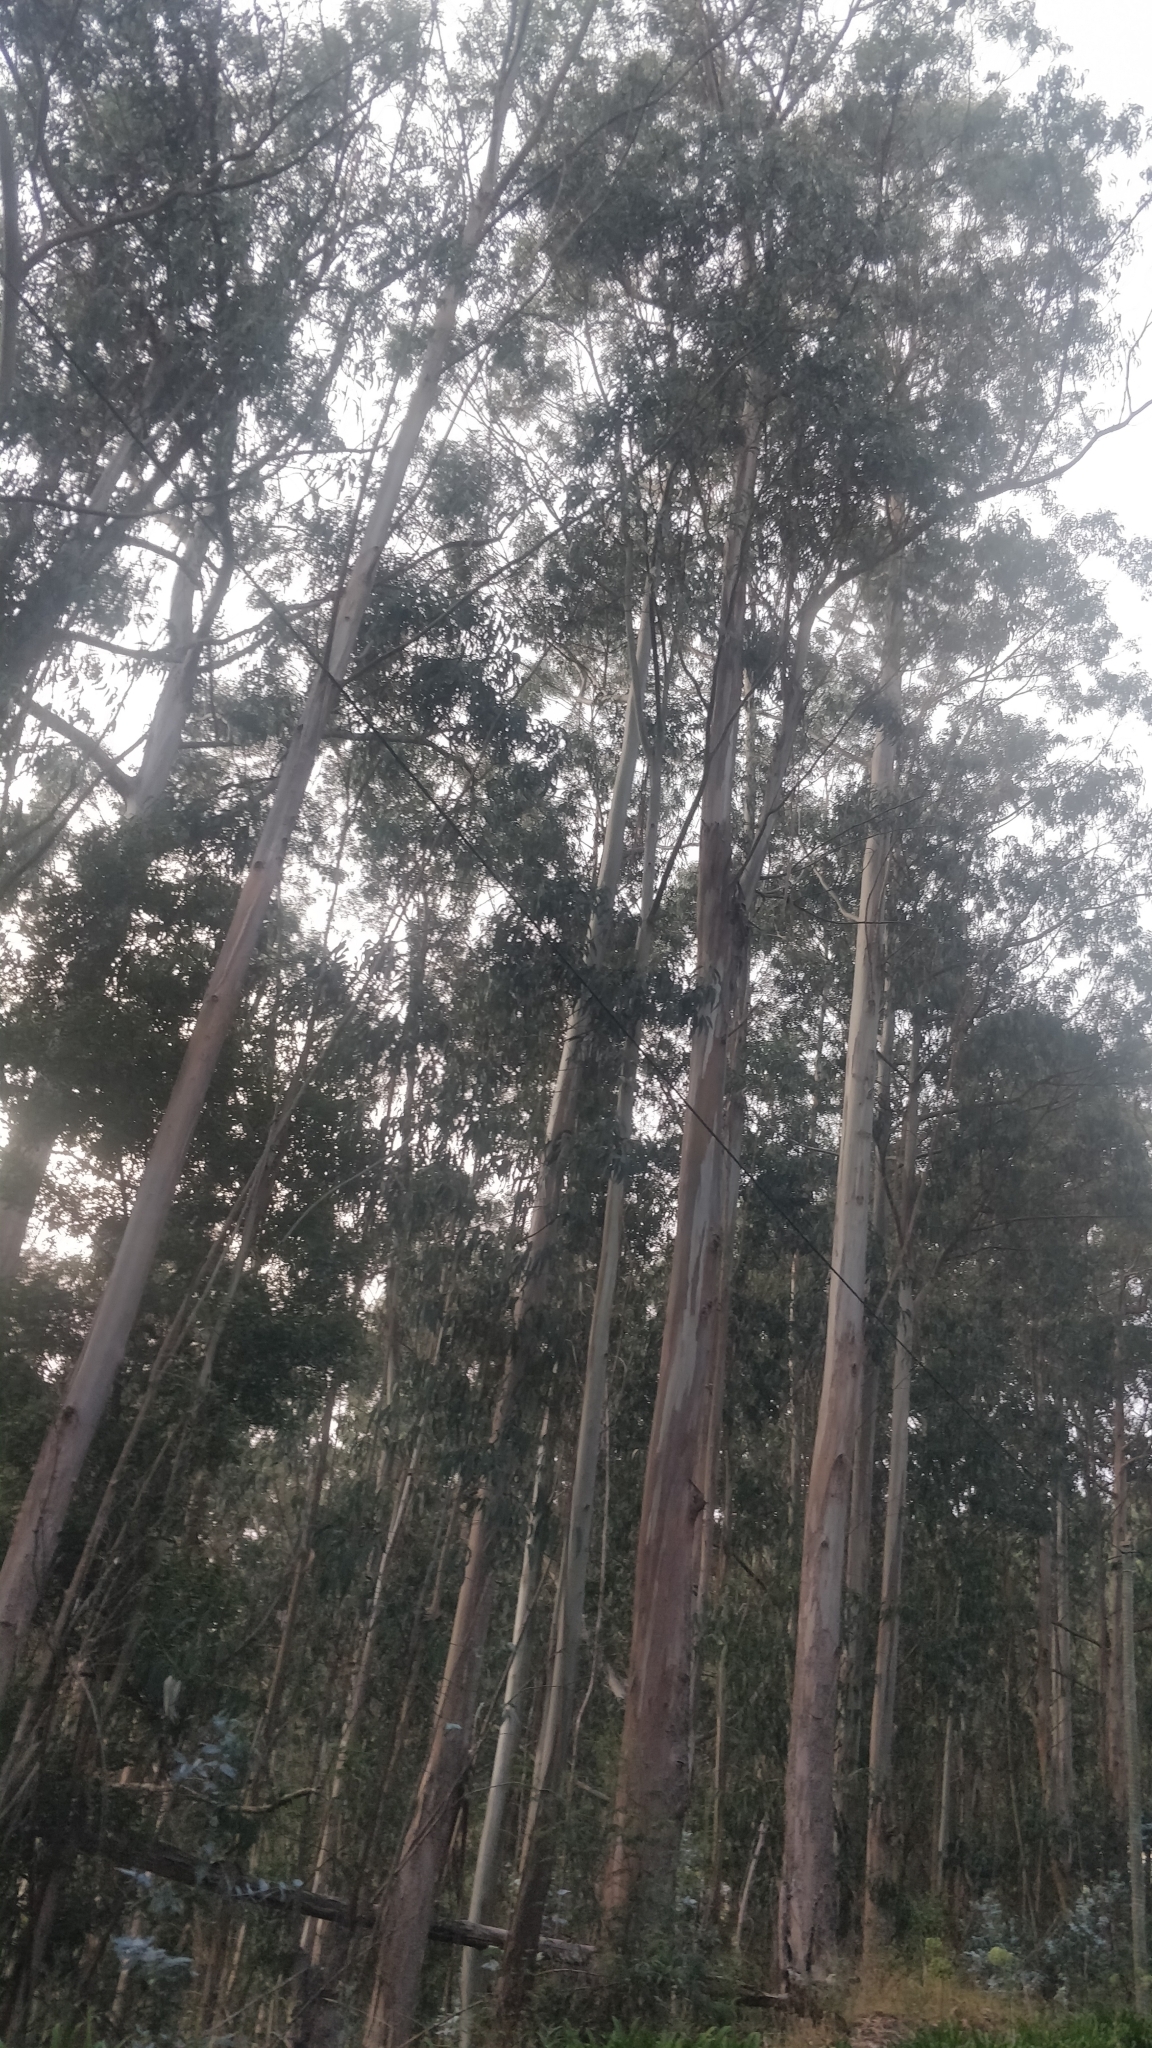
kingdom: Plantae
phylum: Tracheophyta
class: Magnoliopsida
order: Myrtales
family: Myrtaceae
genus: Eucalyptus
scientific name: Eucalyptus globulus
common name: Southern blue-gum
